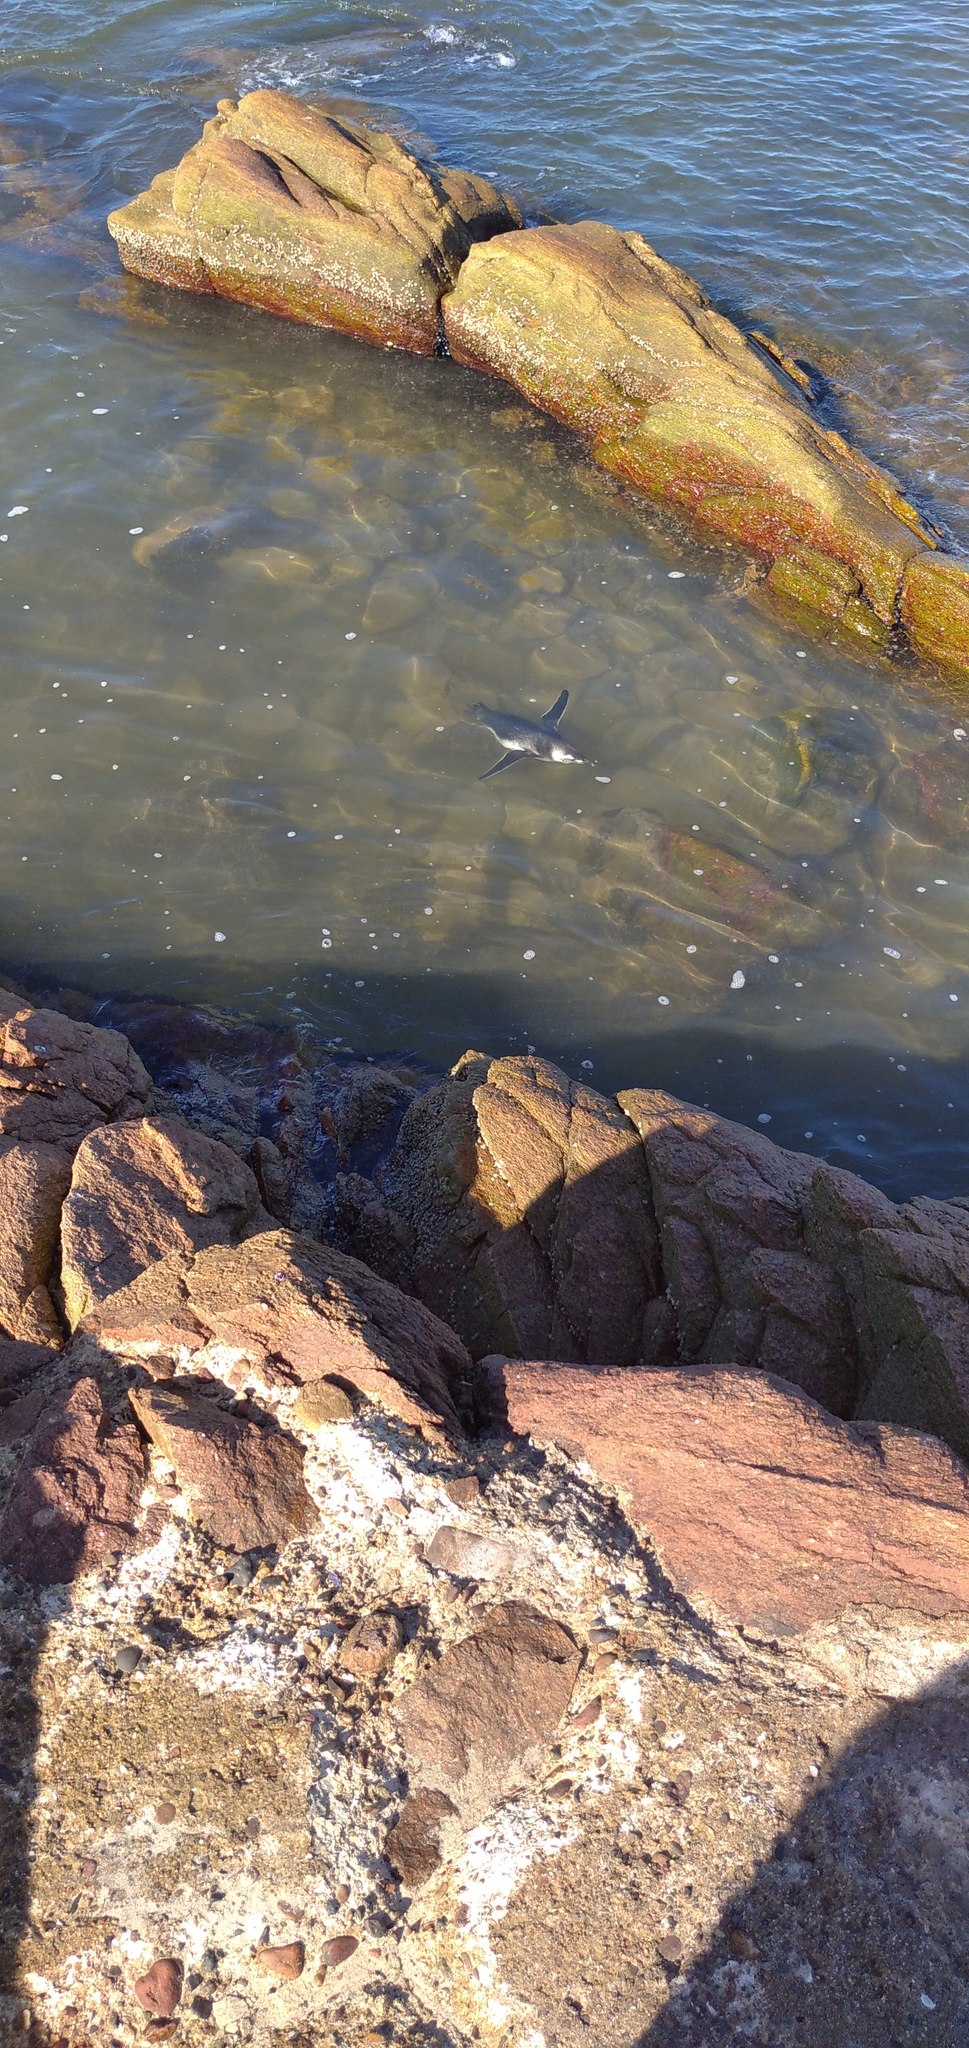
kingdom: Animalia
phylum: Chordata
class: Aves
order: Sphenisciformes
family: Spheniscidae
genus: Spheniscus
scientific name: Spheniscus magellanicus
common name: Magellanic penguin
